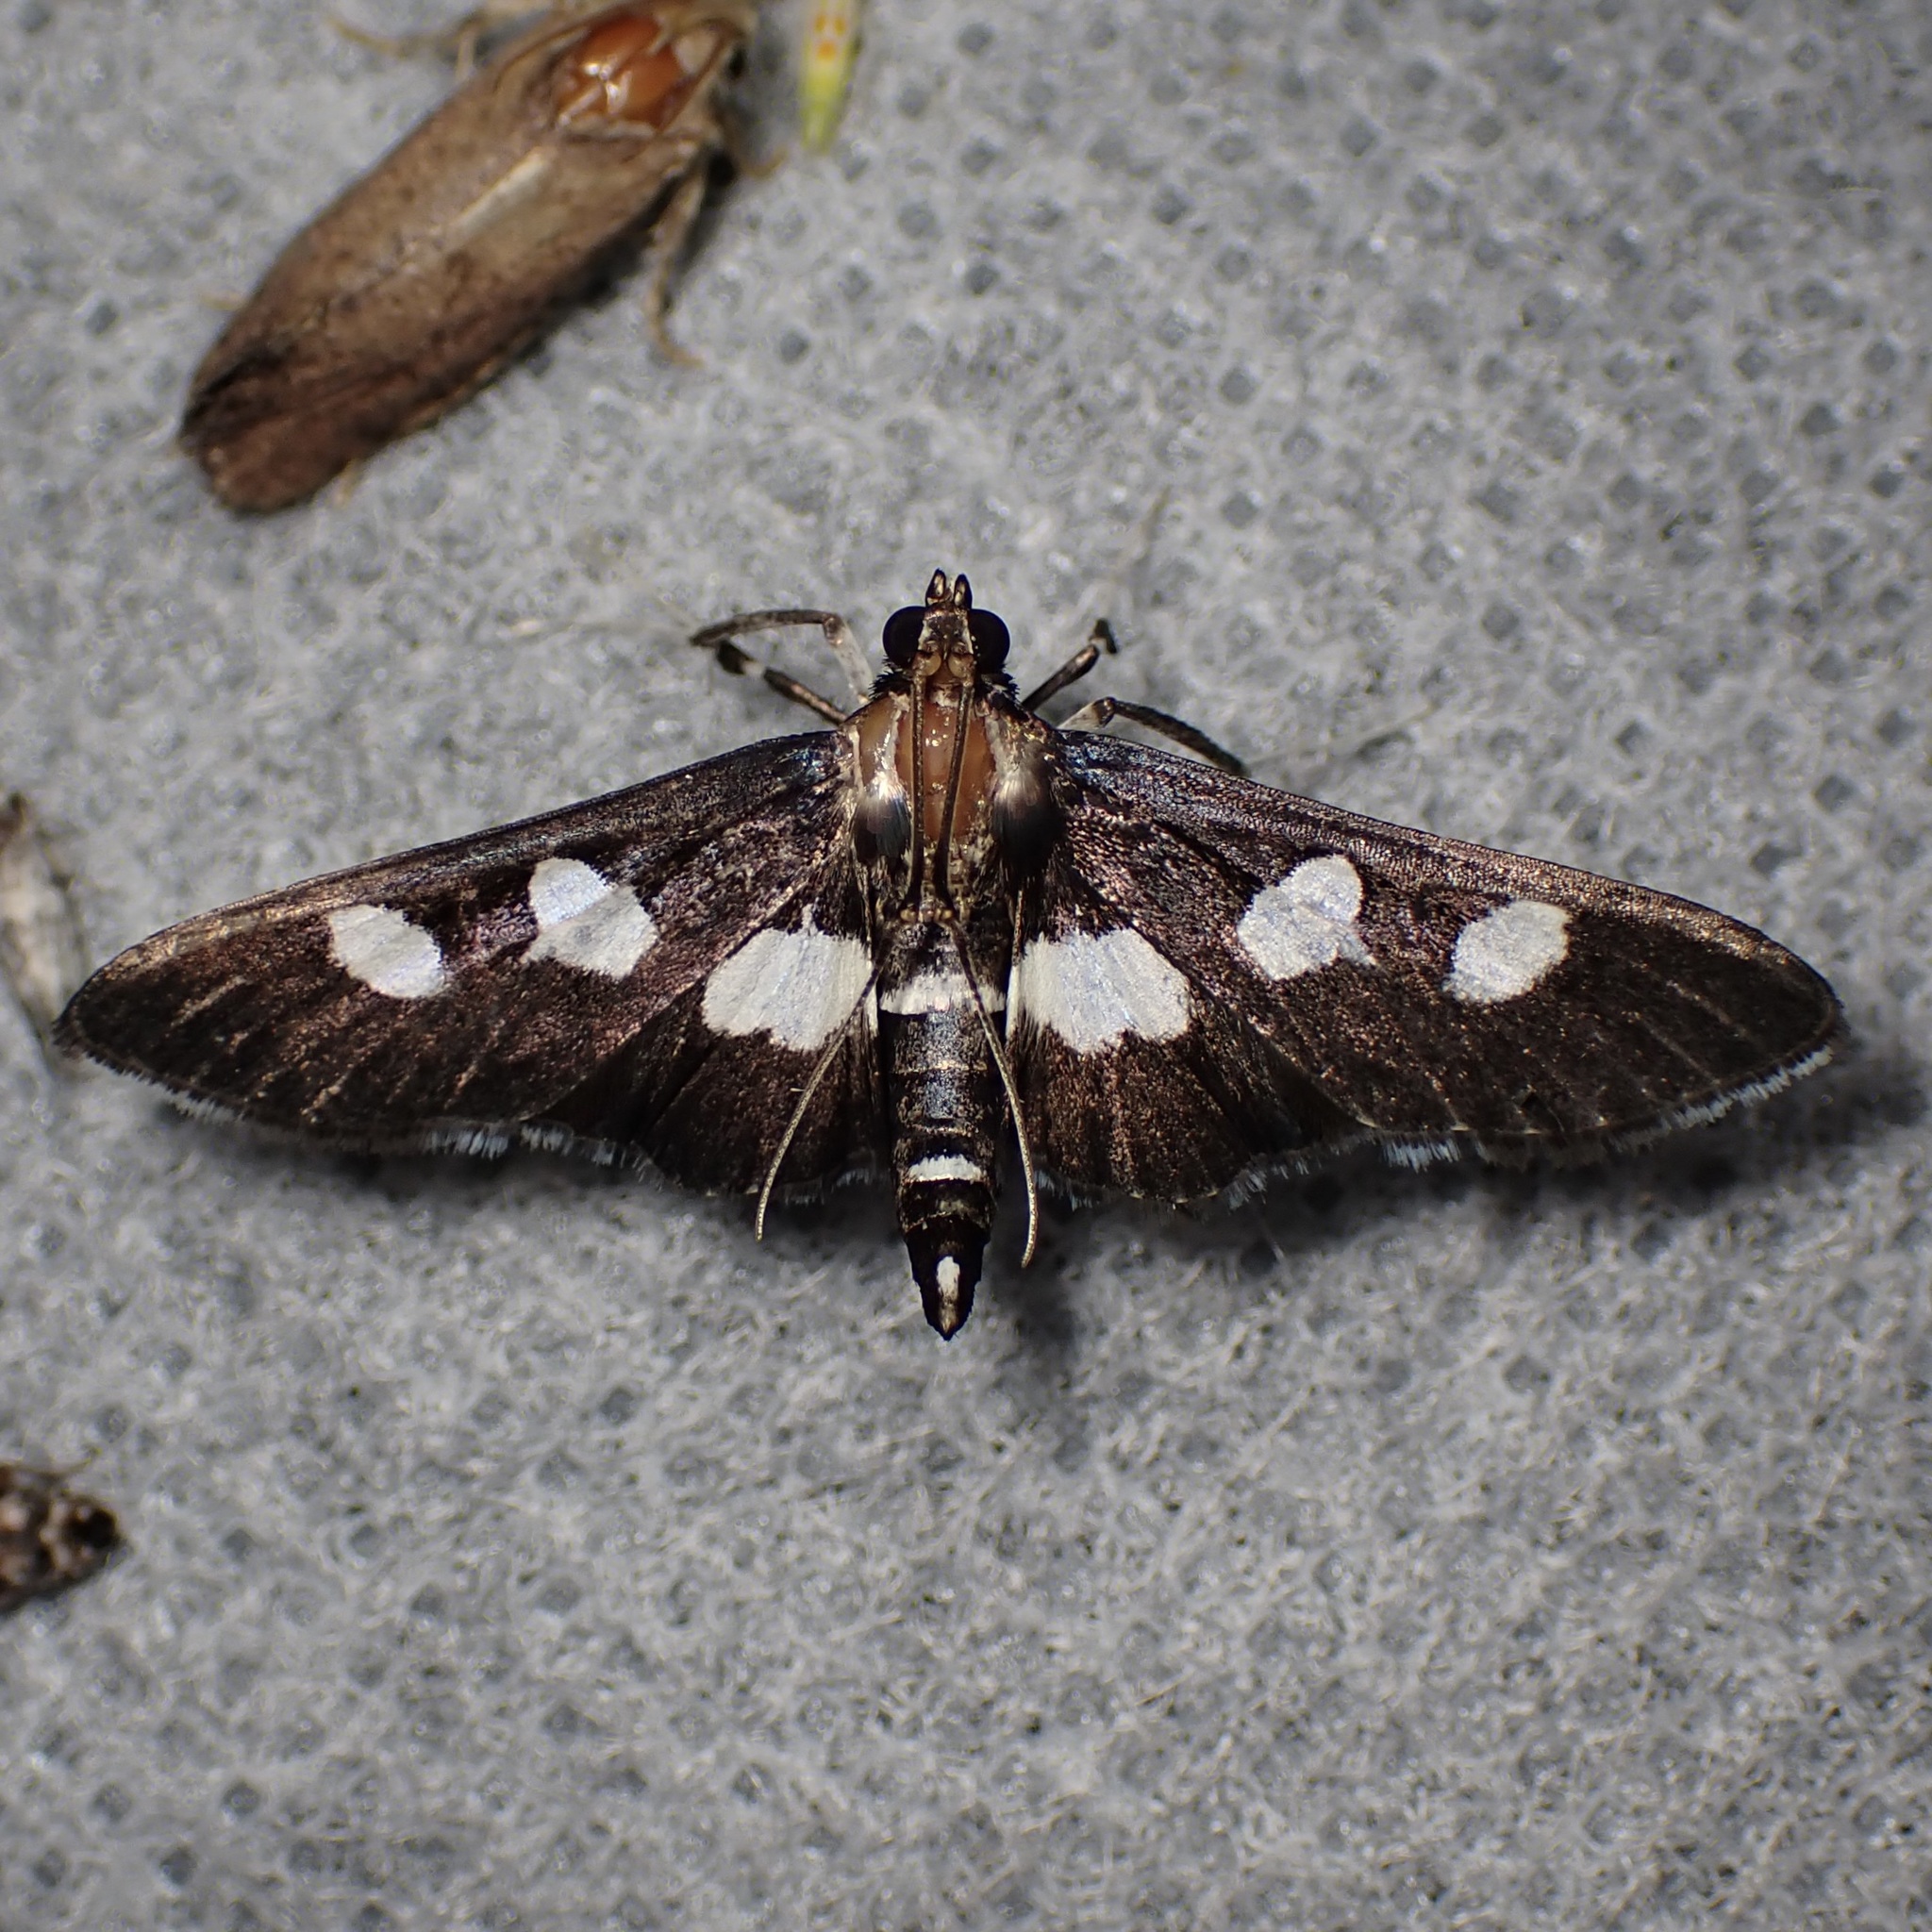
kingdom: Animalia
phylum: Arthropoda
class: Insecta
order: Lepidoptera
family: Crambidae
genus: Desmia
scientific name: Desmia funeralis
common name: Grape leaf folder moth
